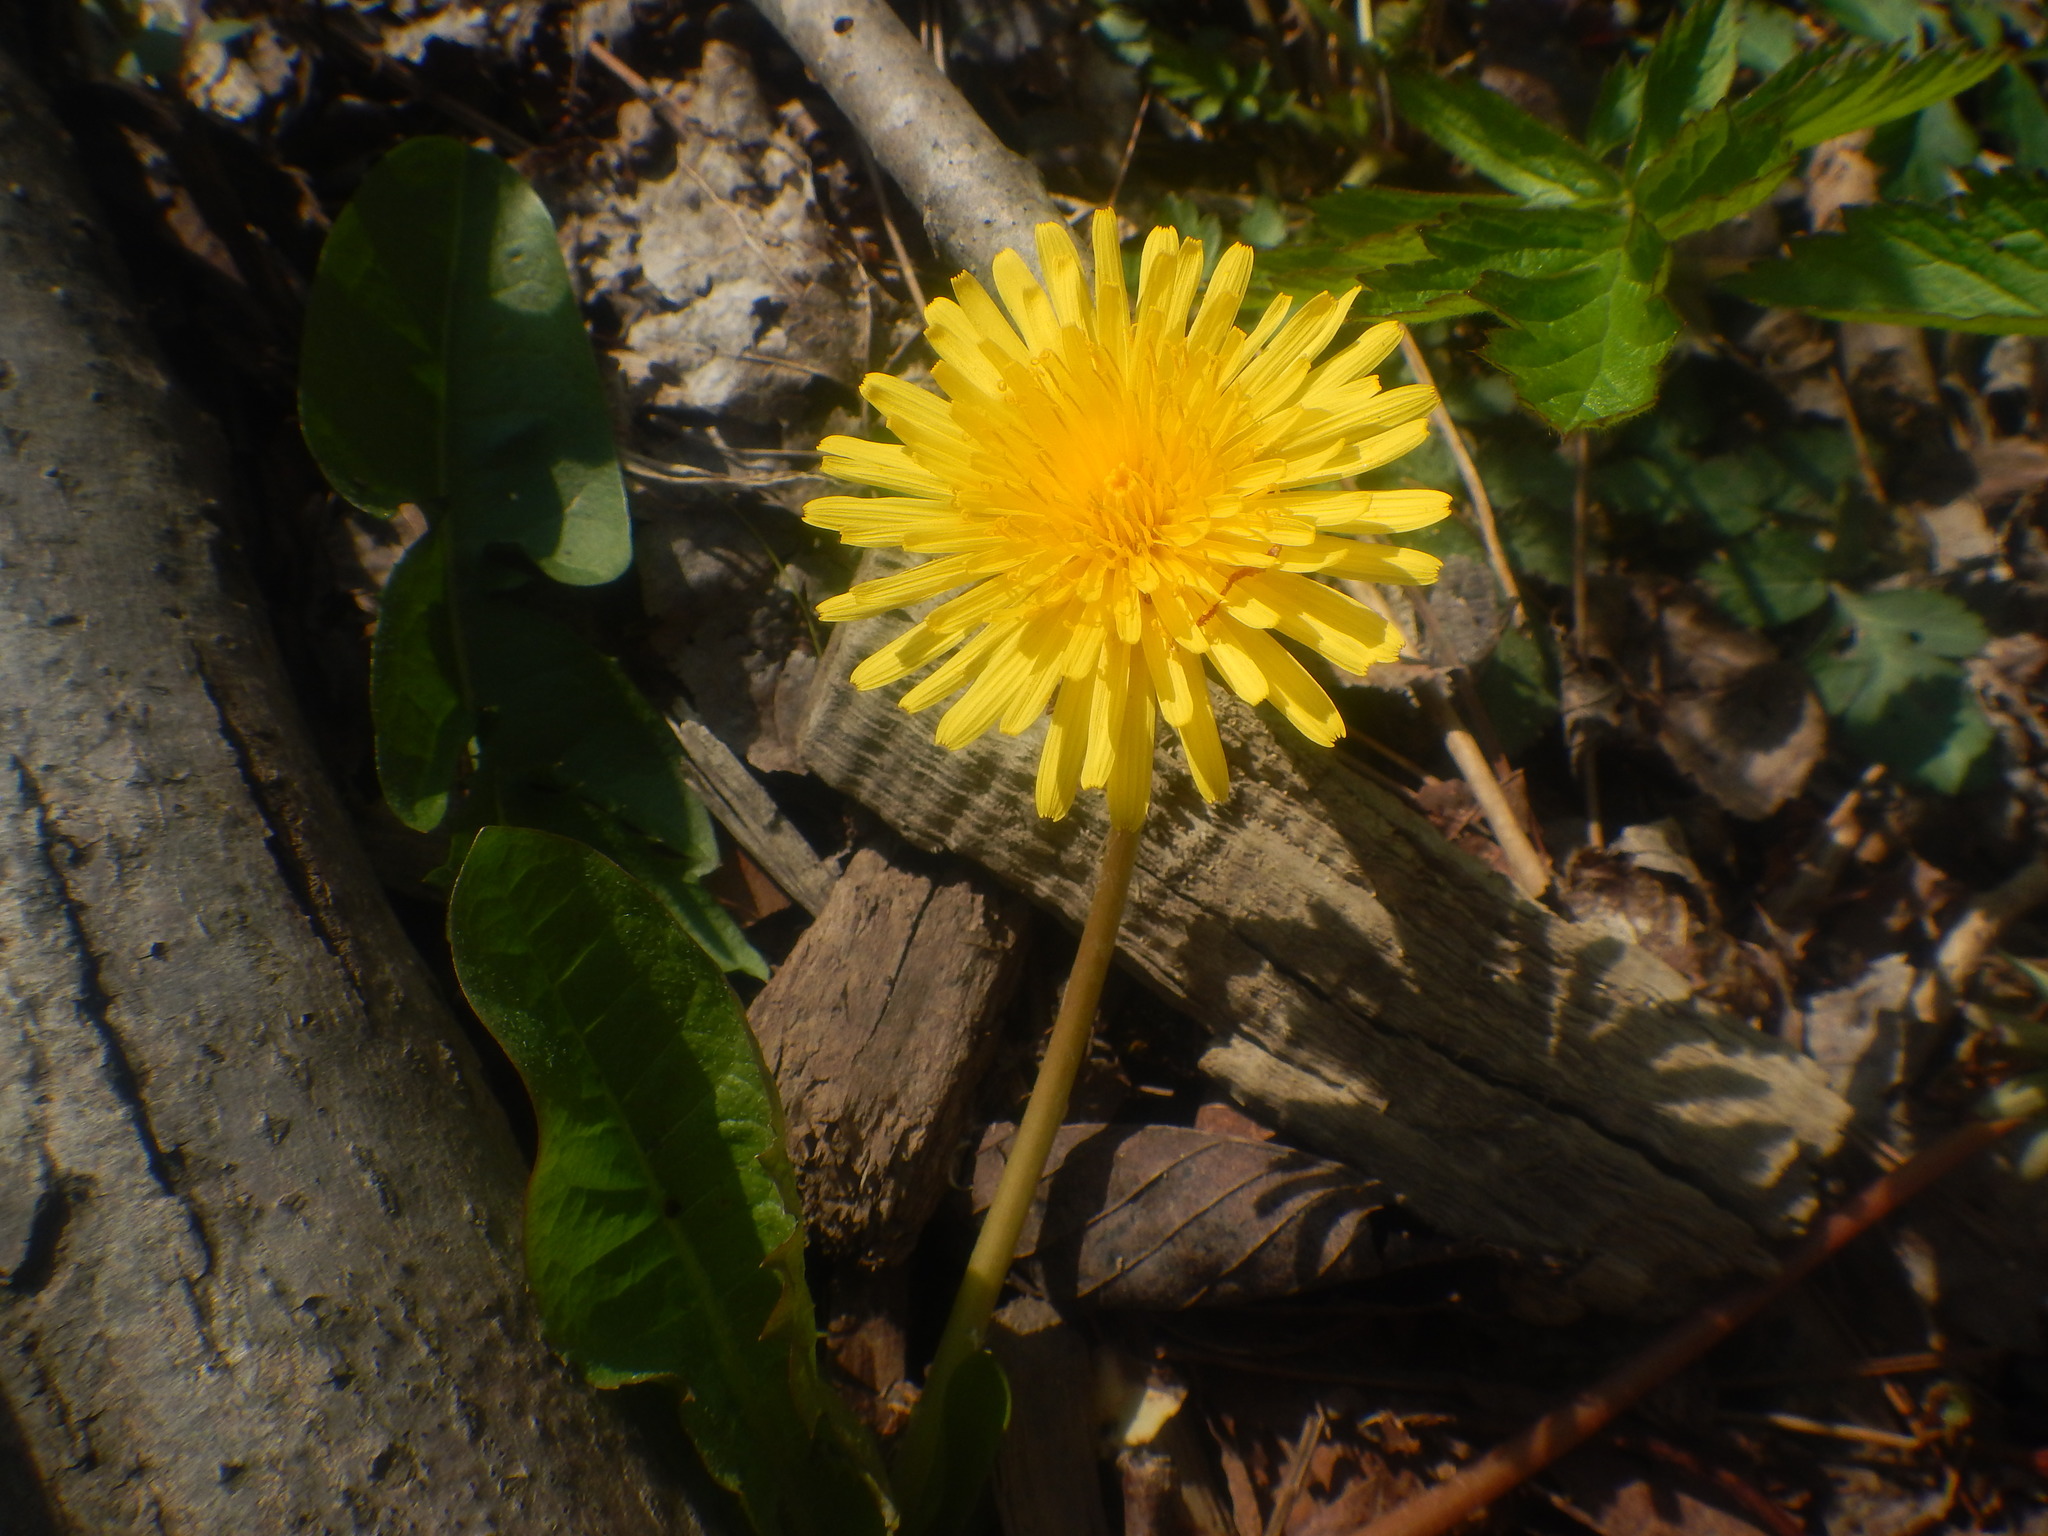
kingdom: Plantae
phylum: Tracheophyta
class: Magnoliopsida
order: Asterales
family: Asteraceae
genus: Taraxacum
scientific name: Taraxacum
